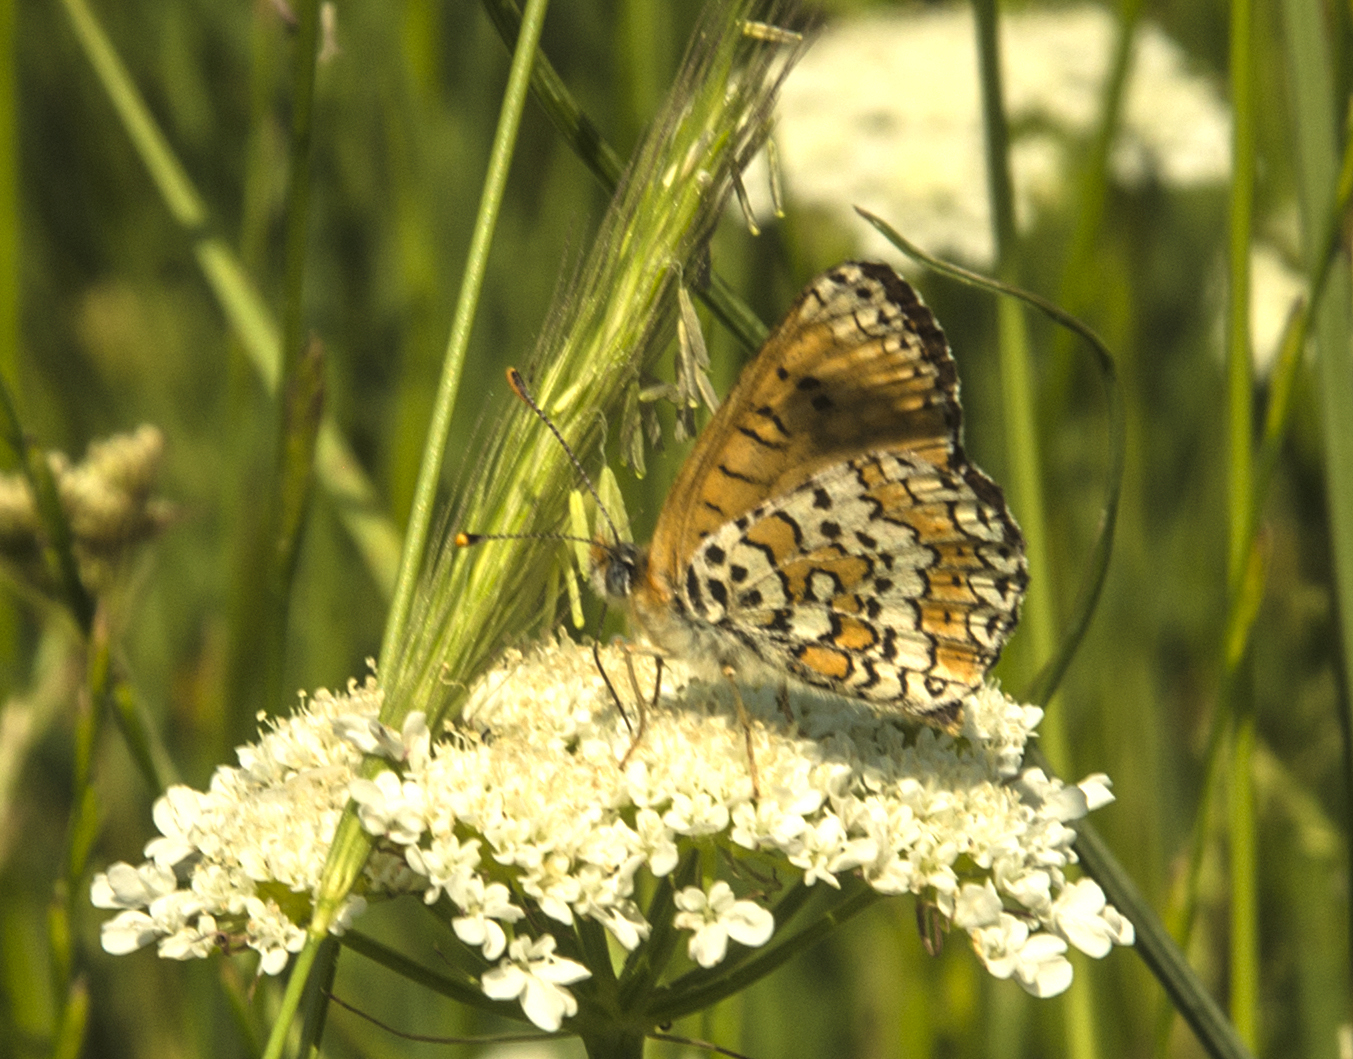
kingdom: Animalia
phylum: Arthropoda
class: Insecta
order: Lepidoptera
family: Nymphalidae
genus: Melitaea
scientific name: Melitaea cinxia
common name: Glanville fritillary
